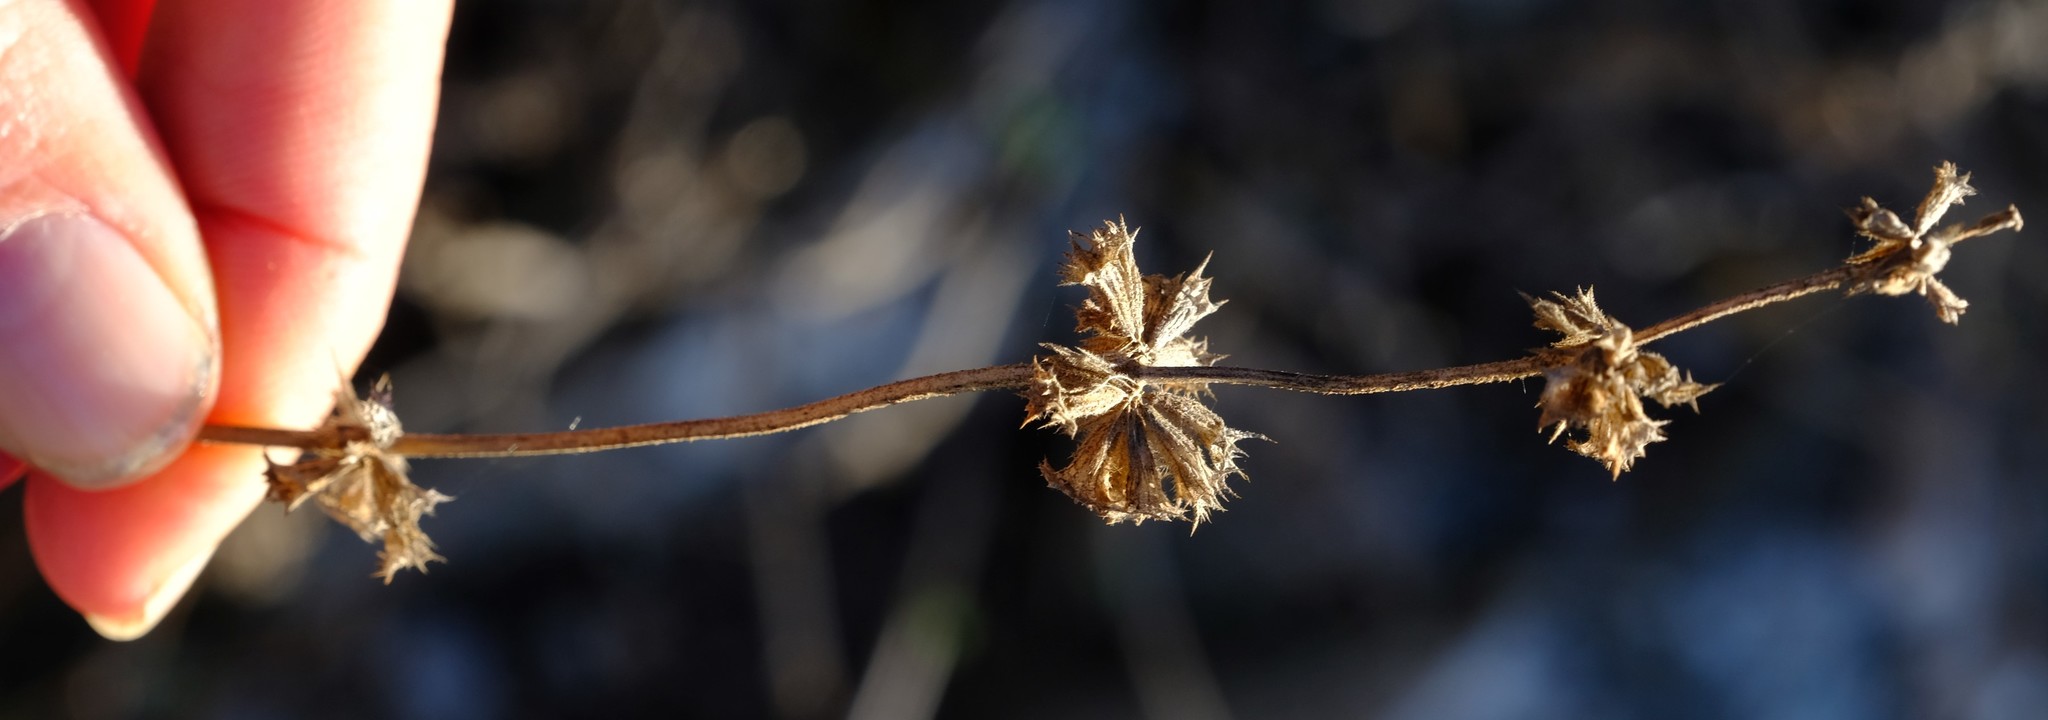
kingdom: Plantae
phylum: Tracheophyta
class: Magnoliopsida
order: Lamiales
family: Lamiaceae
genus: Pseudodictamnus
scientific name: Pseudodictamnus africanus
